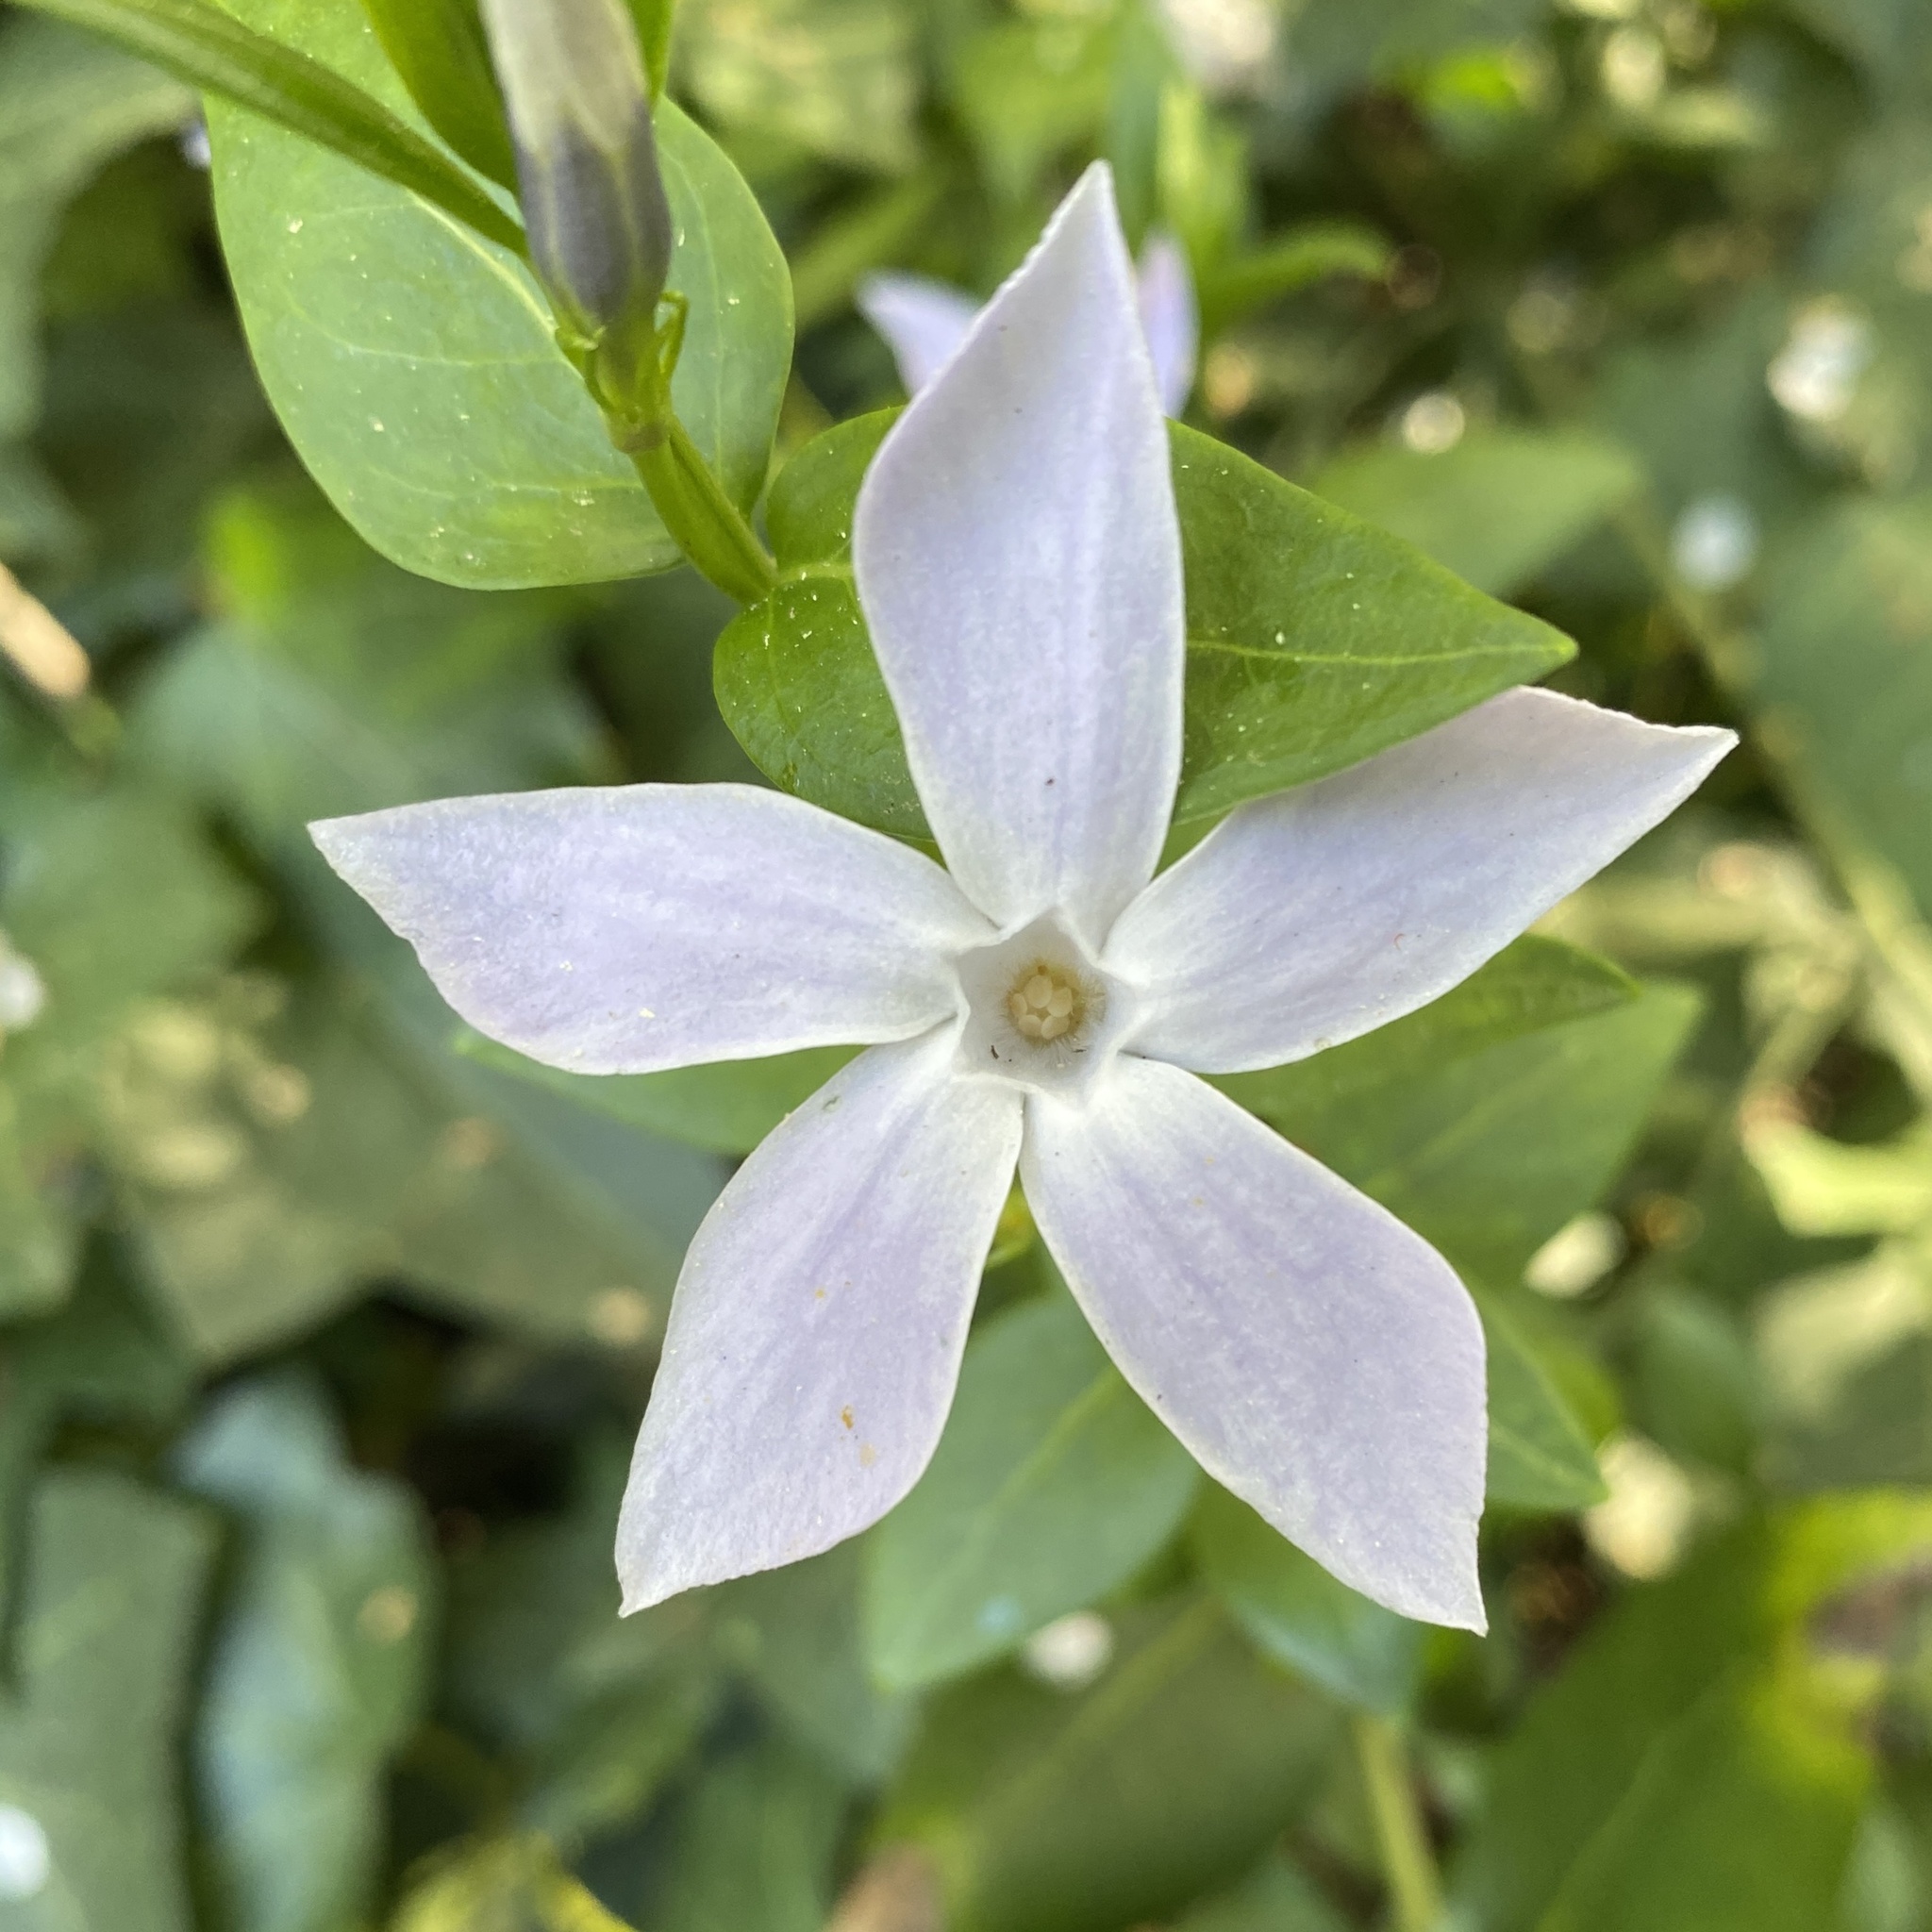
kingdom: Plantae
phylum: Tracheophyta
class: Magnoliopsida
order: Gentianales
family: Apocynaceae
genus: Vinca
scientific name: Vinca difformis
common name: Intermediate periwinkle
